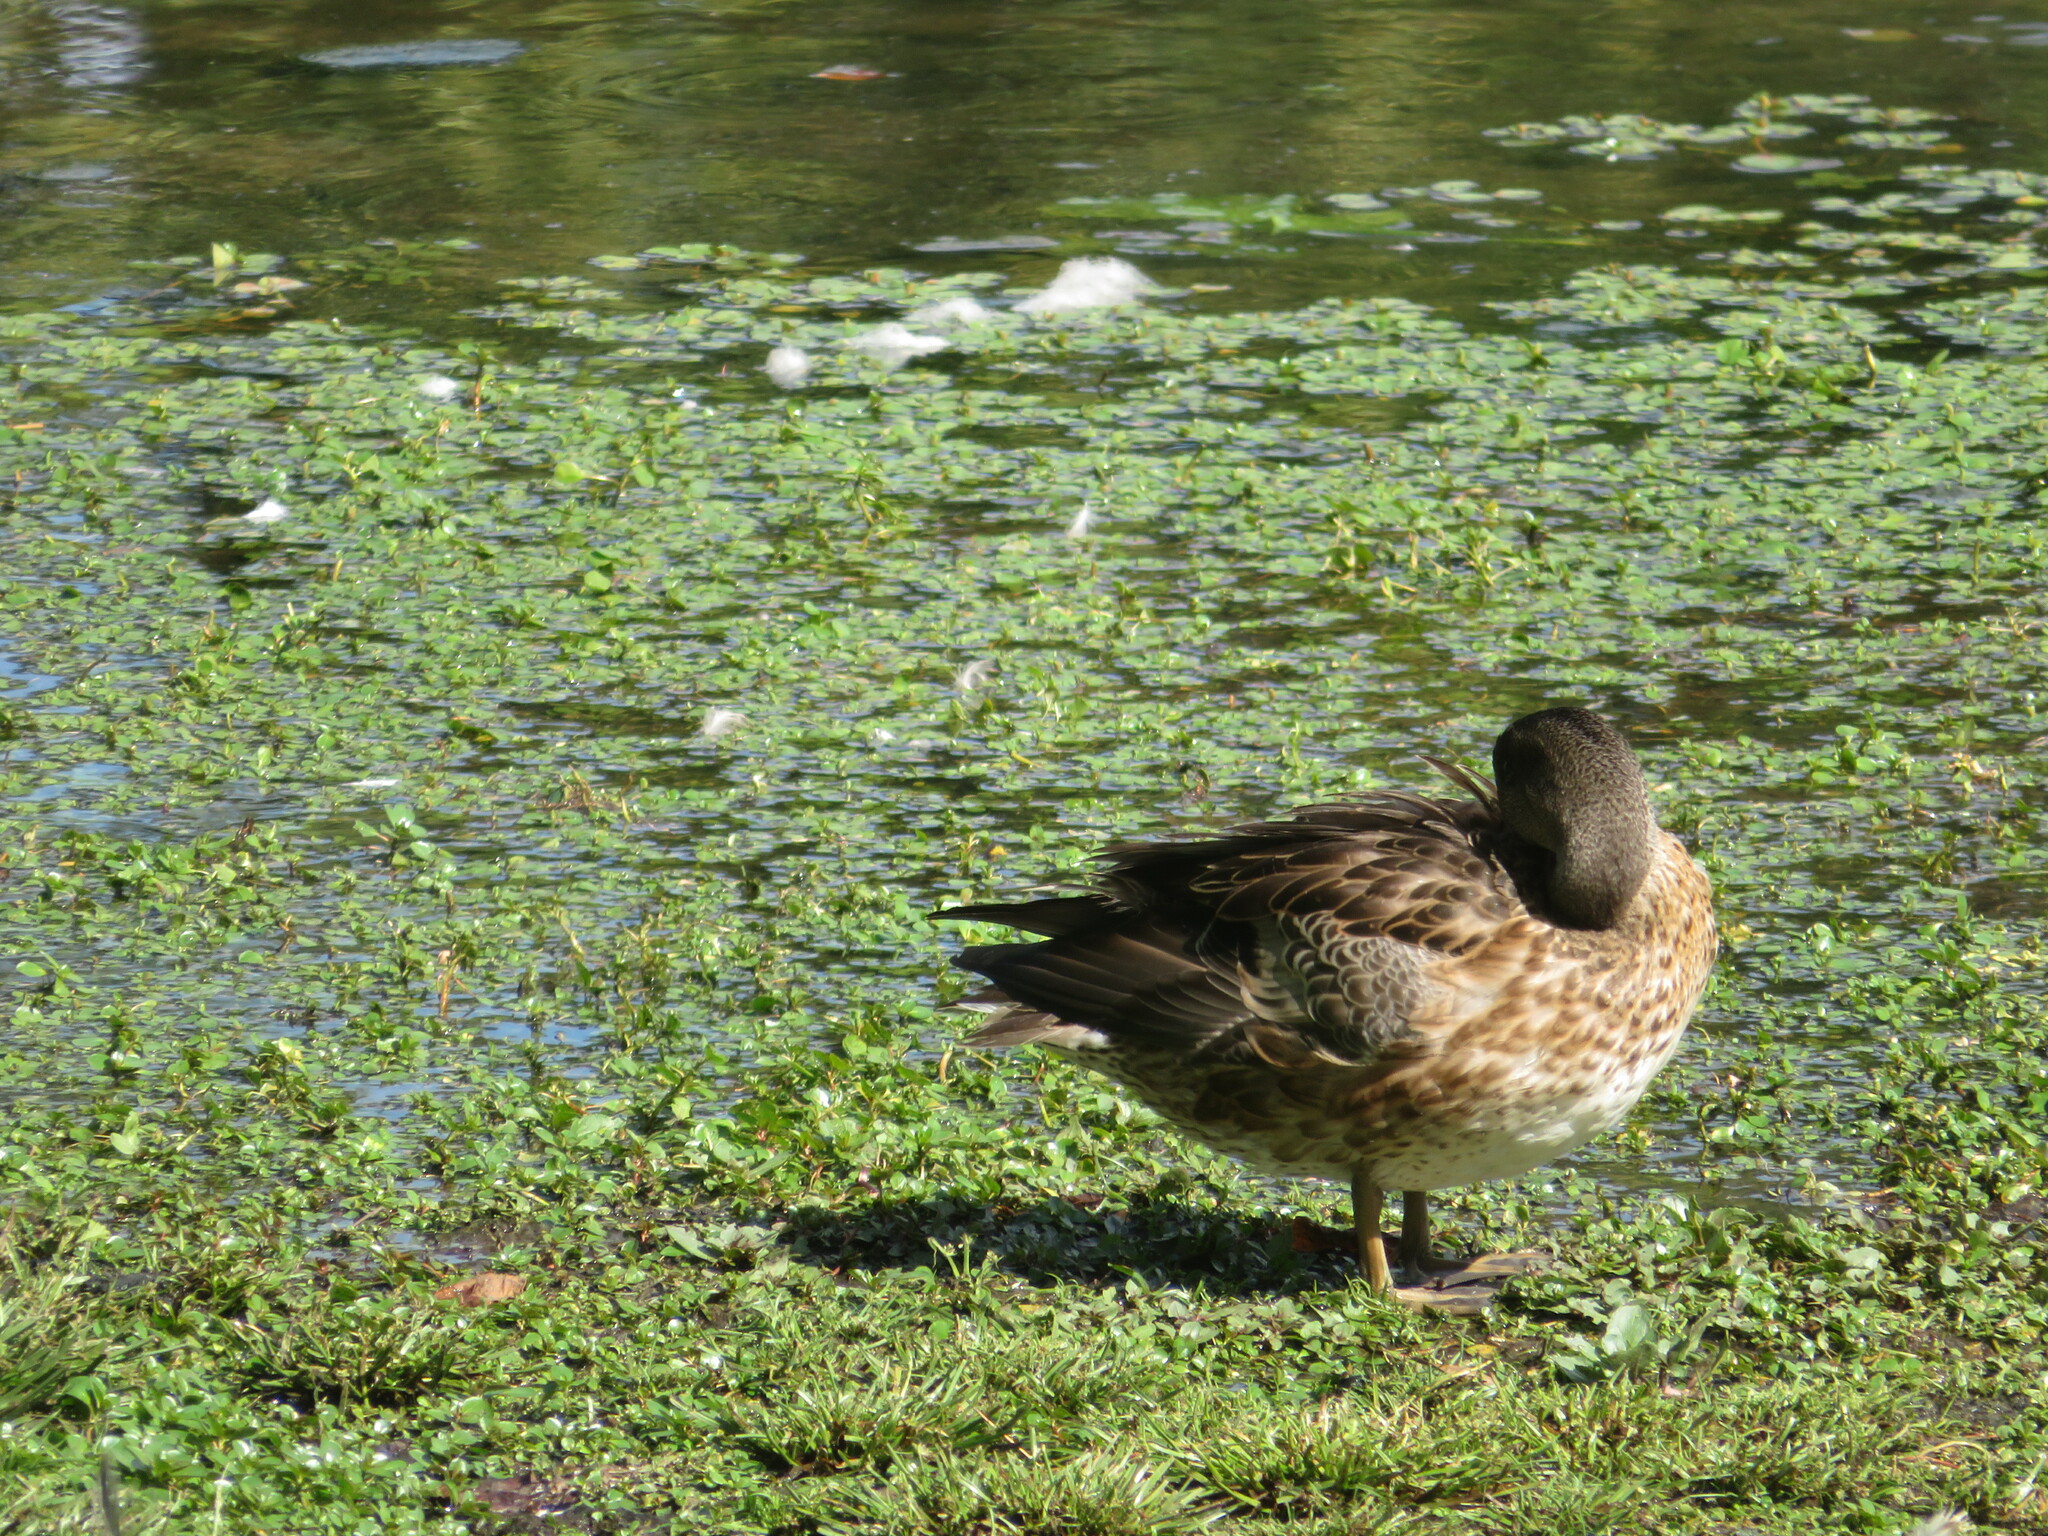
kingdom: Animalia
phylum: Chordata
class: Aves
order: Anseriformes
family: Anatidae
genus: Anas
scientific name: Anas platyrhynchos
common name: Mallard
